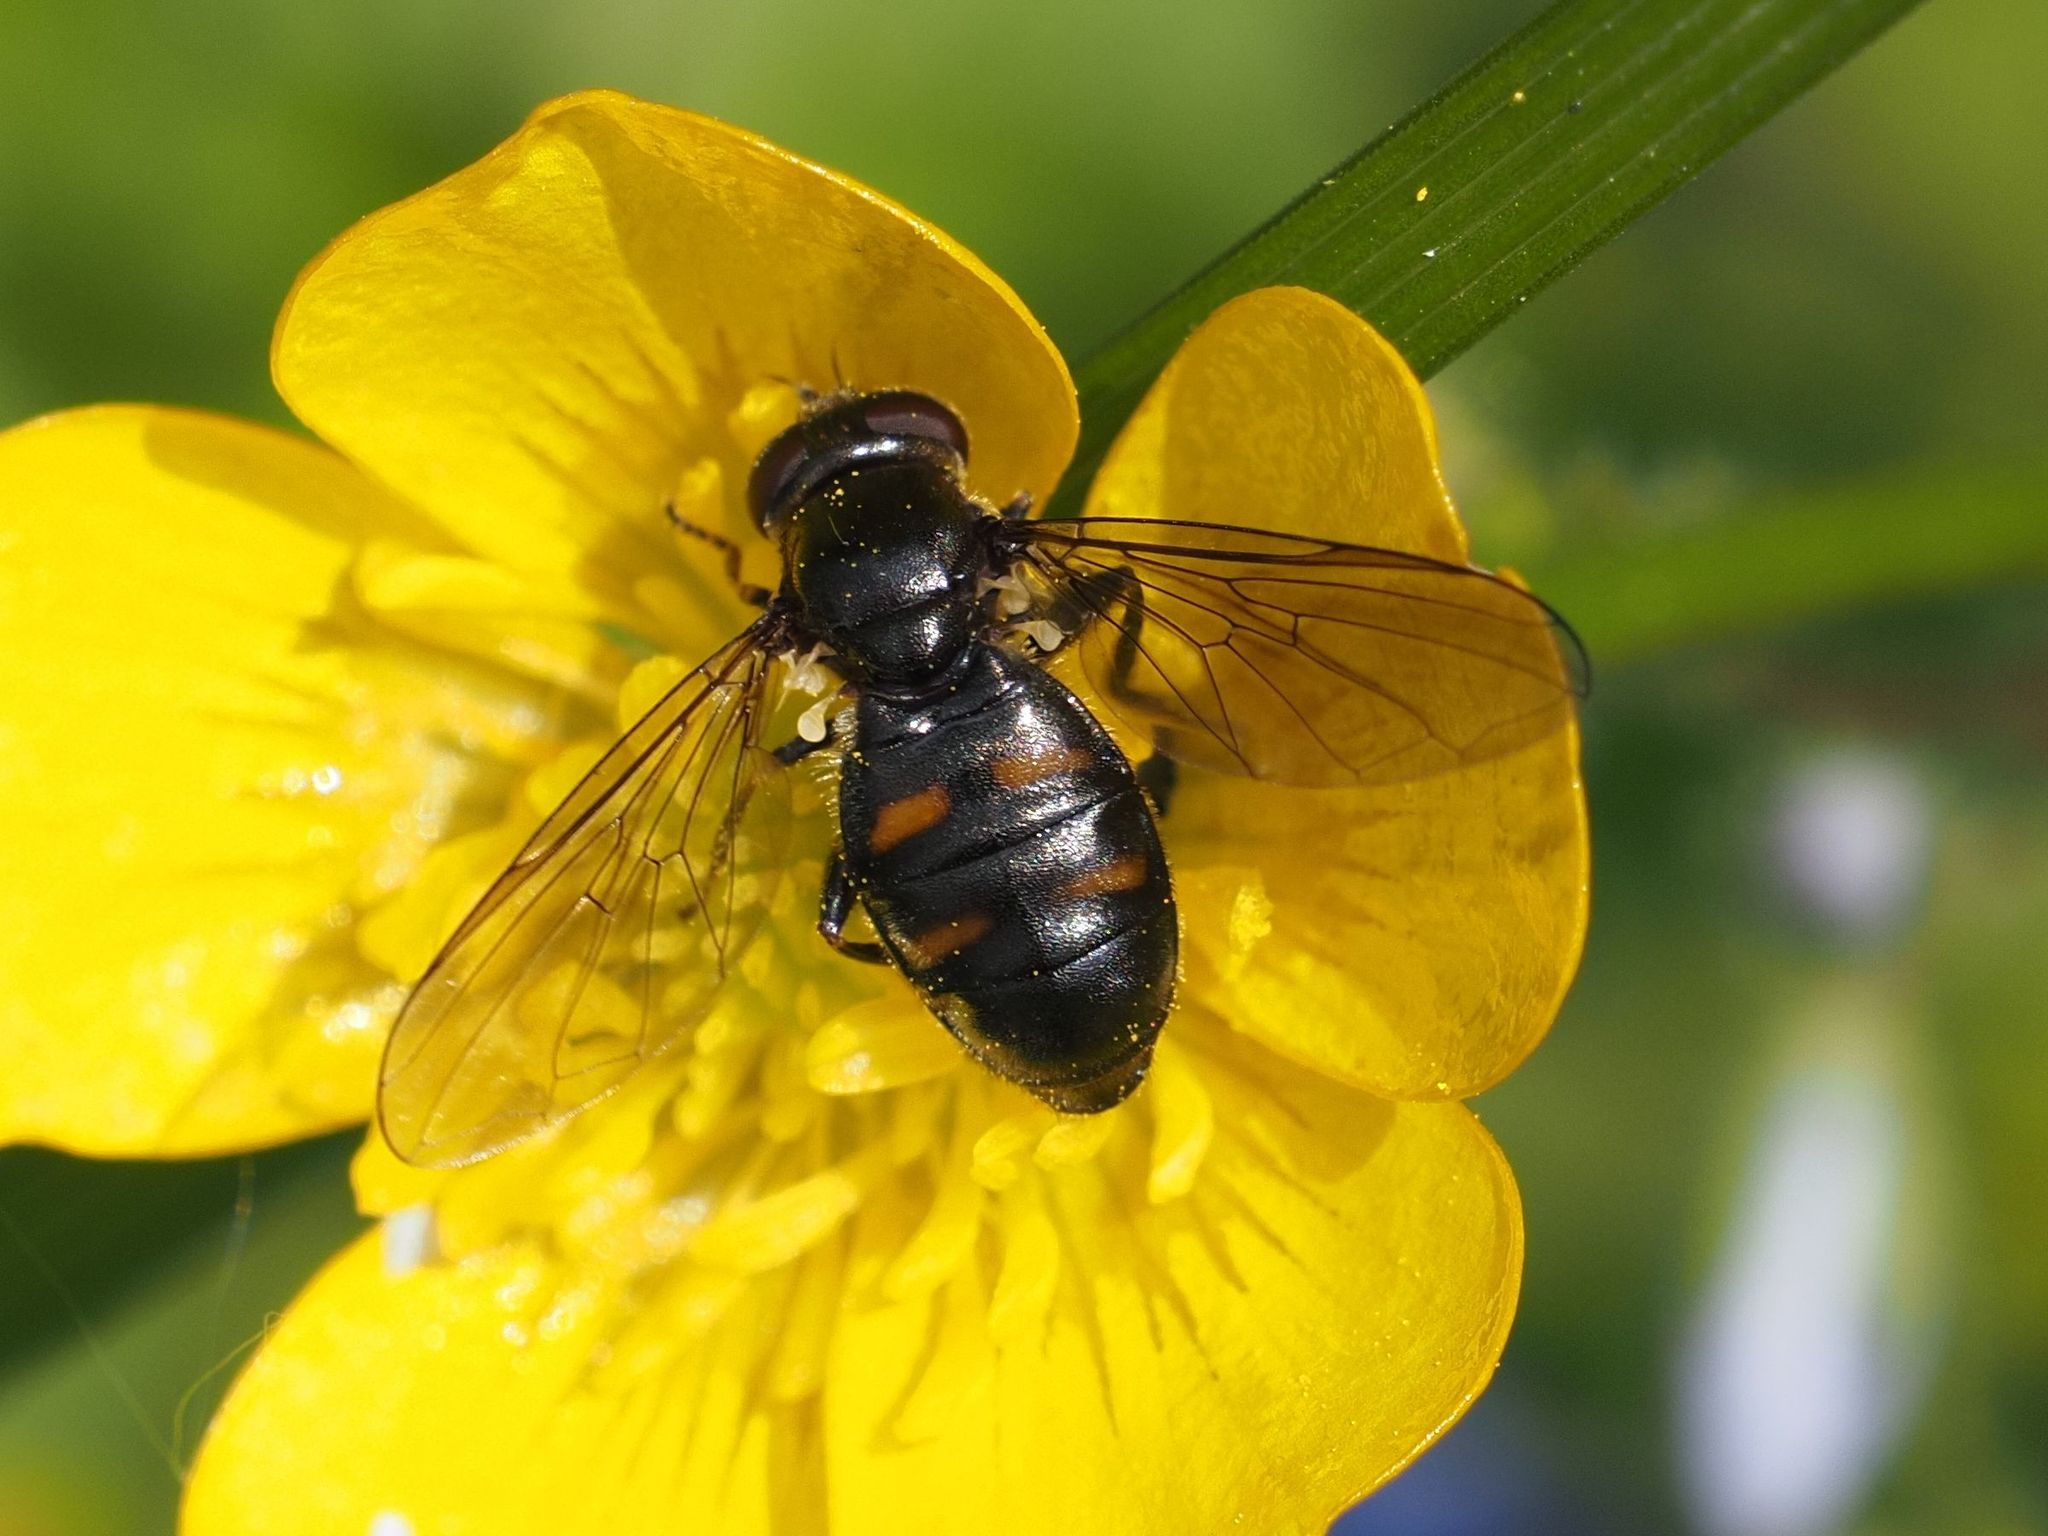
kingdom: Animalia
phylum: Arthropoda
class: Insecta
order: Diptera
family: Syrphidae
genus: Pipiza
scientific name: Pipiza quadrimaculata
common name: Four-spotted pipiza
